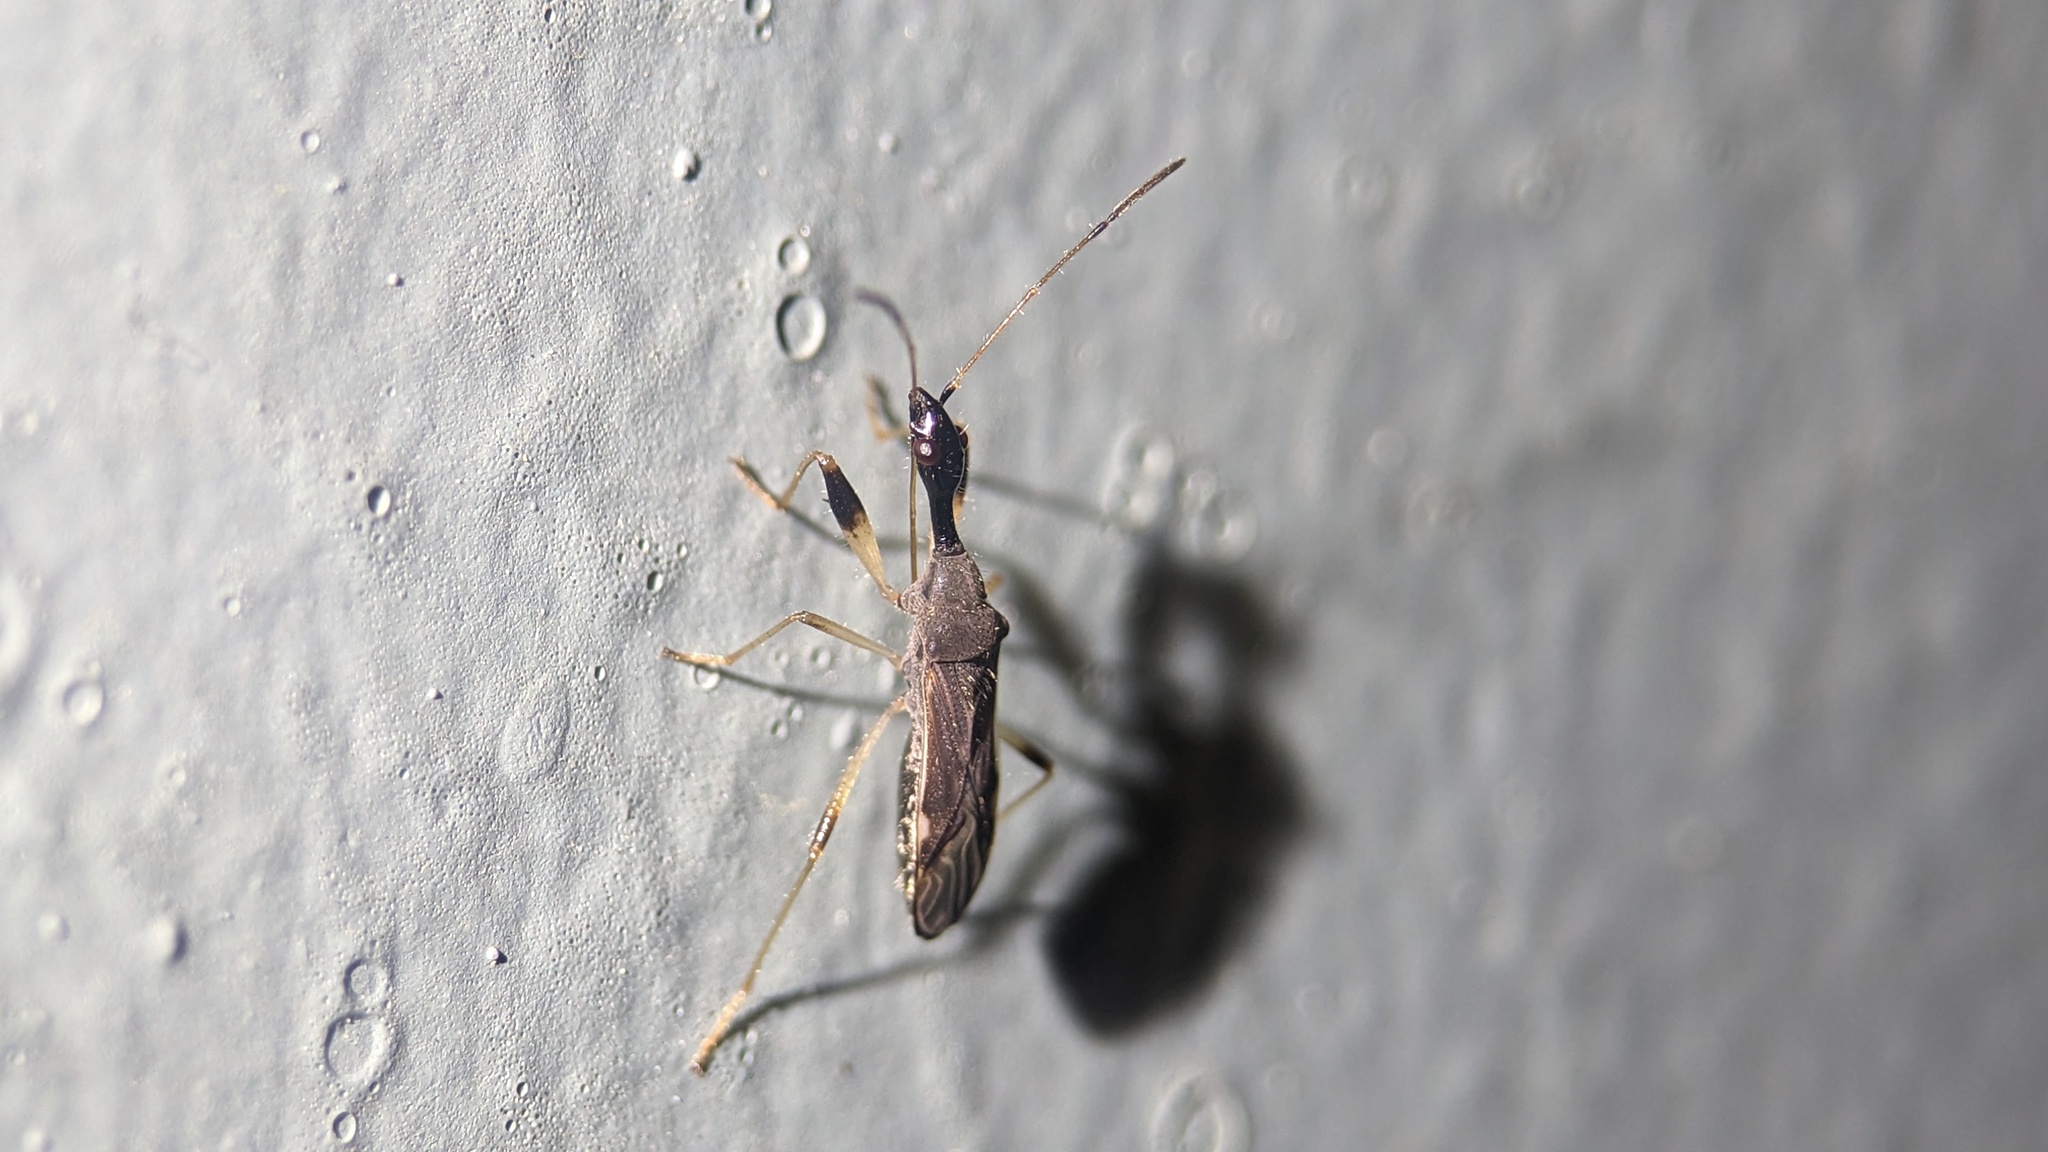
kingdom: Animalia
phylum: Arthropoda
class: Insecta
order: Hemiptera
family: Rhyparochromidae
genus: Myodocha
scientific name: Myodocha serripes
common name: Long-necked seed bug
